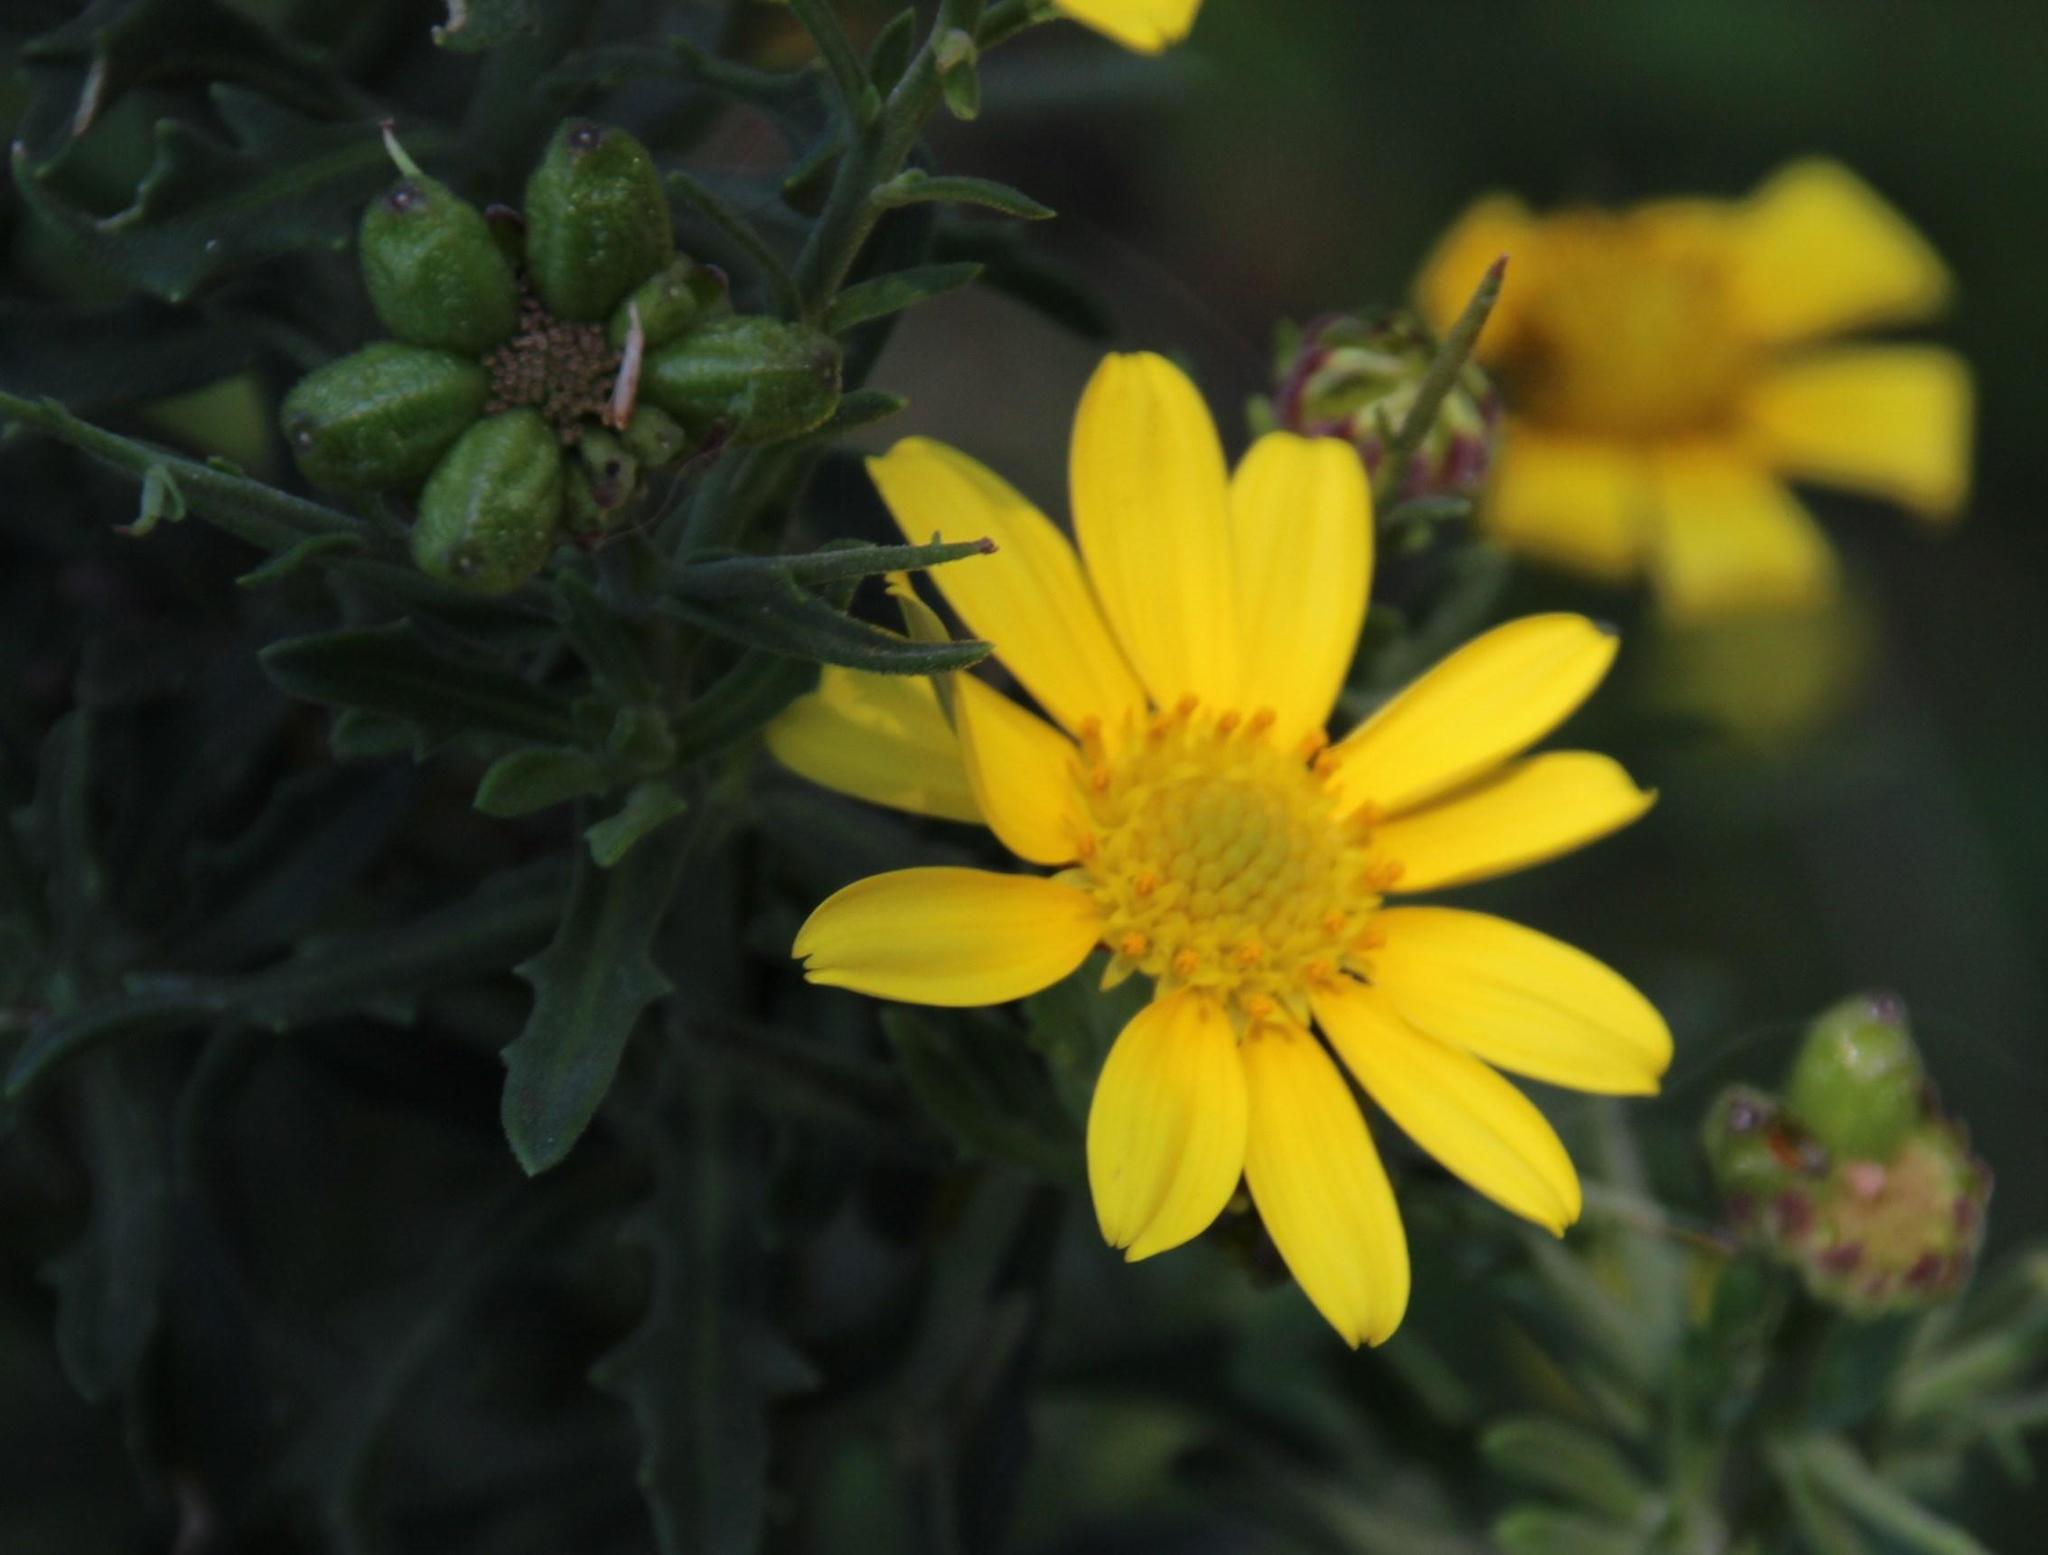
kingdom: Plantae
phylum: Tracheophyta
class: Magnoliopsida
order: Asterales
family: Asteraceae
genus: Osteospermum
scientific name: Osteospermum spinosum
